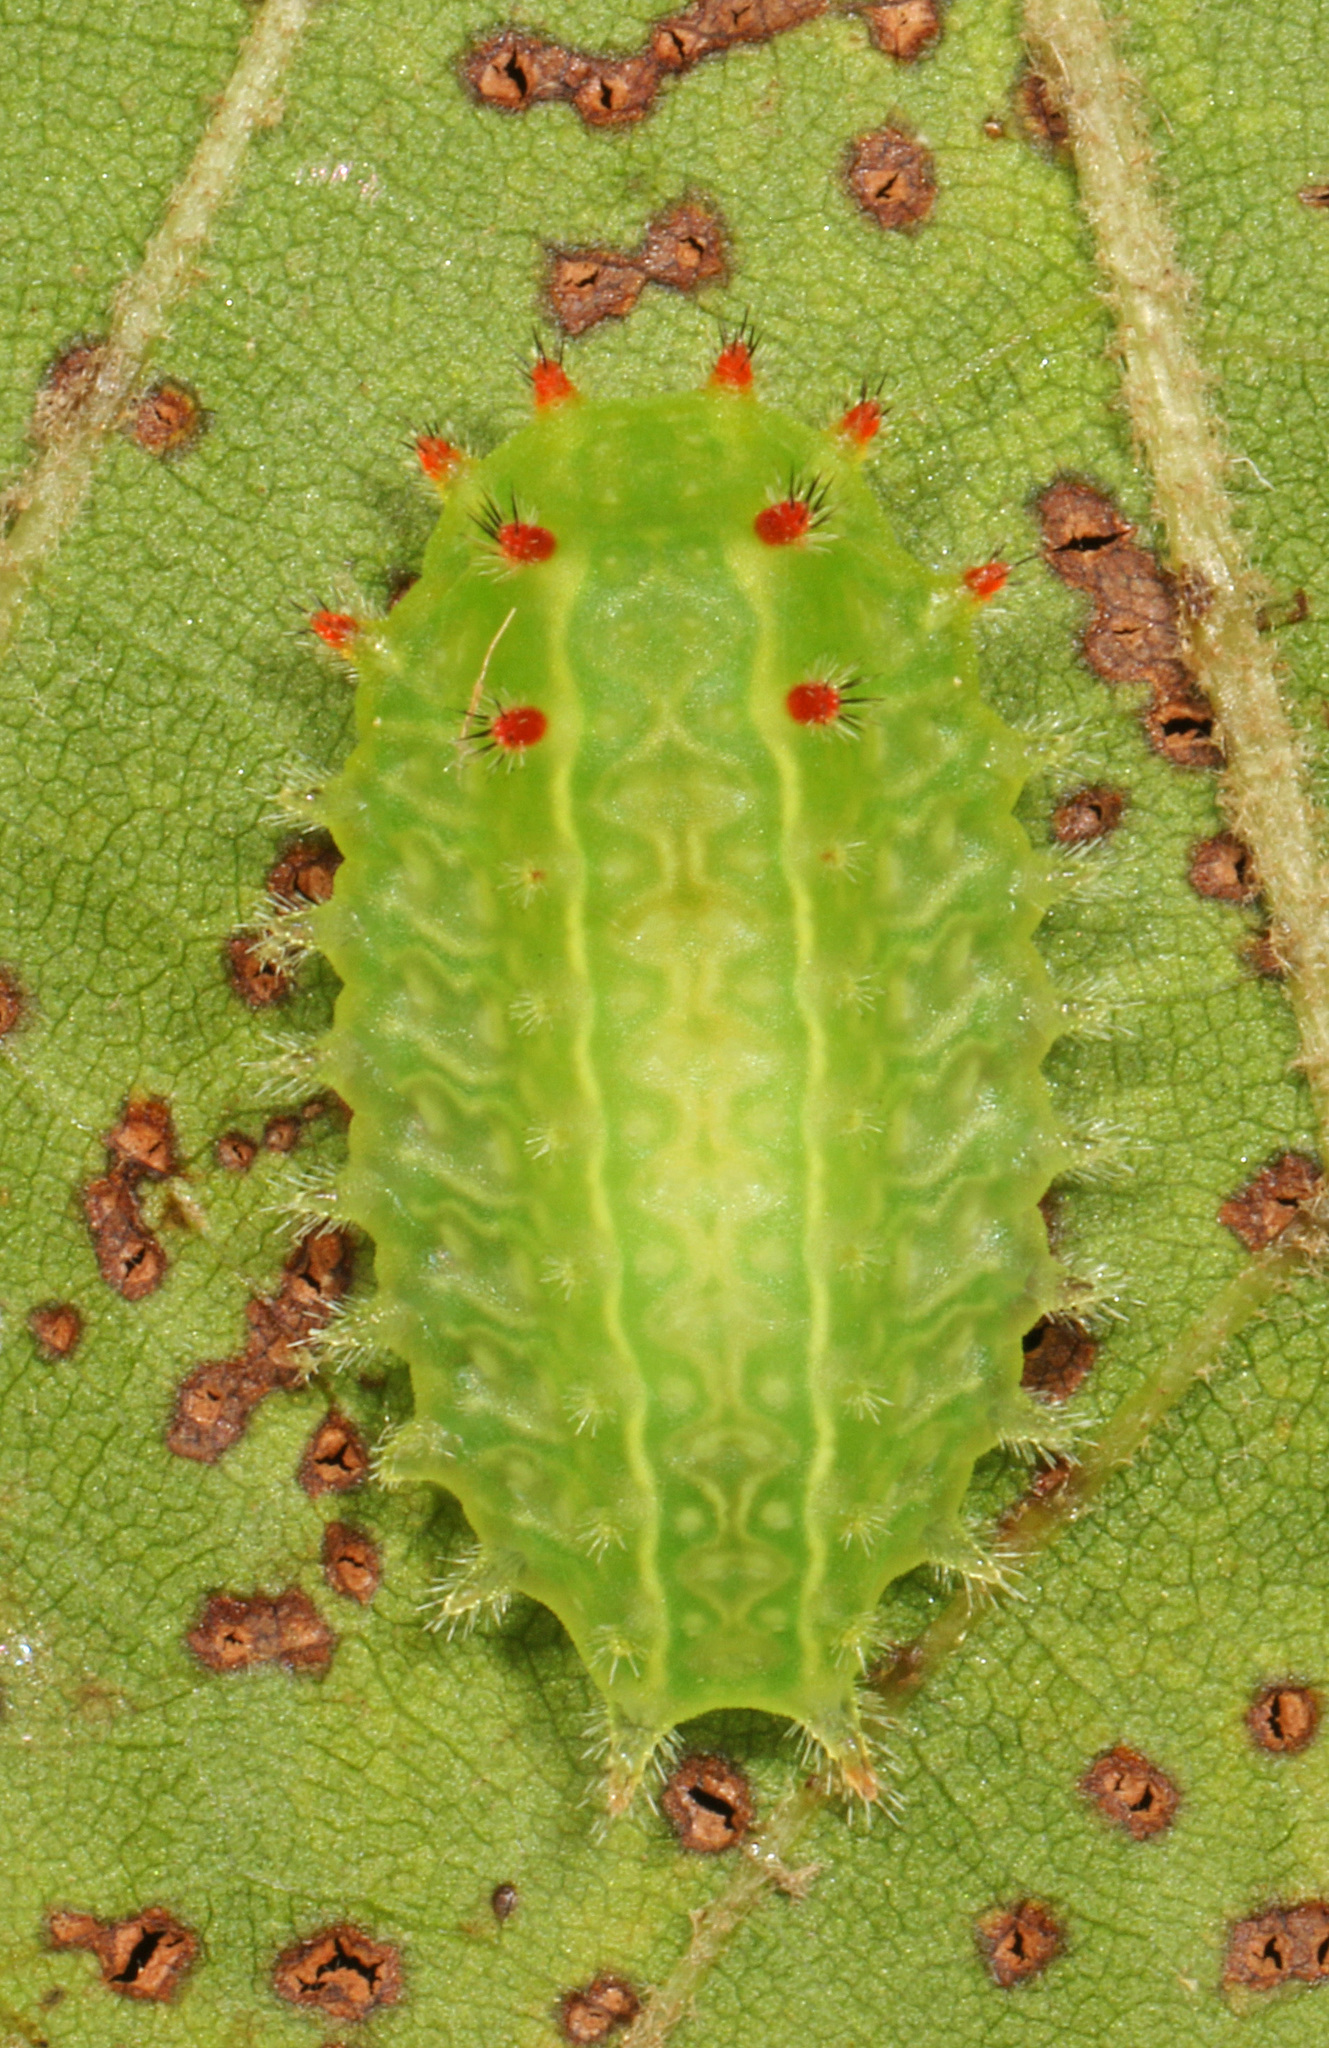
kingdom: Animalia
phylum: Arthropoda
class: Insecta
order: Lepidoptera
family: Limacodidae
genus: Natada
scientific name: Natada nasoni
